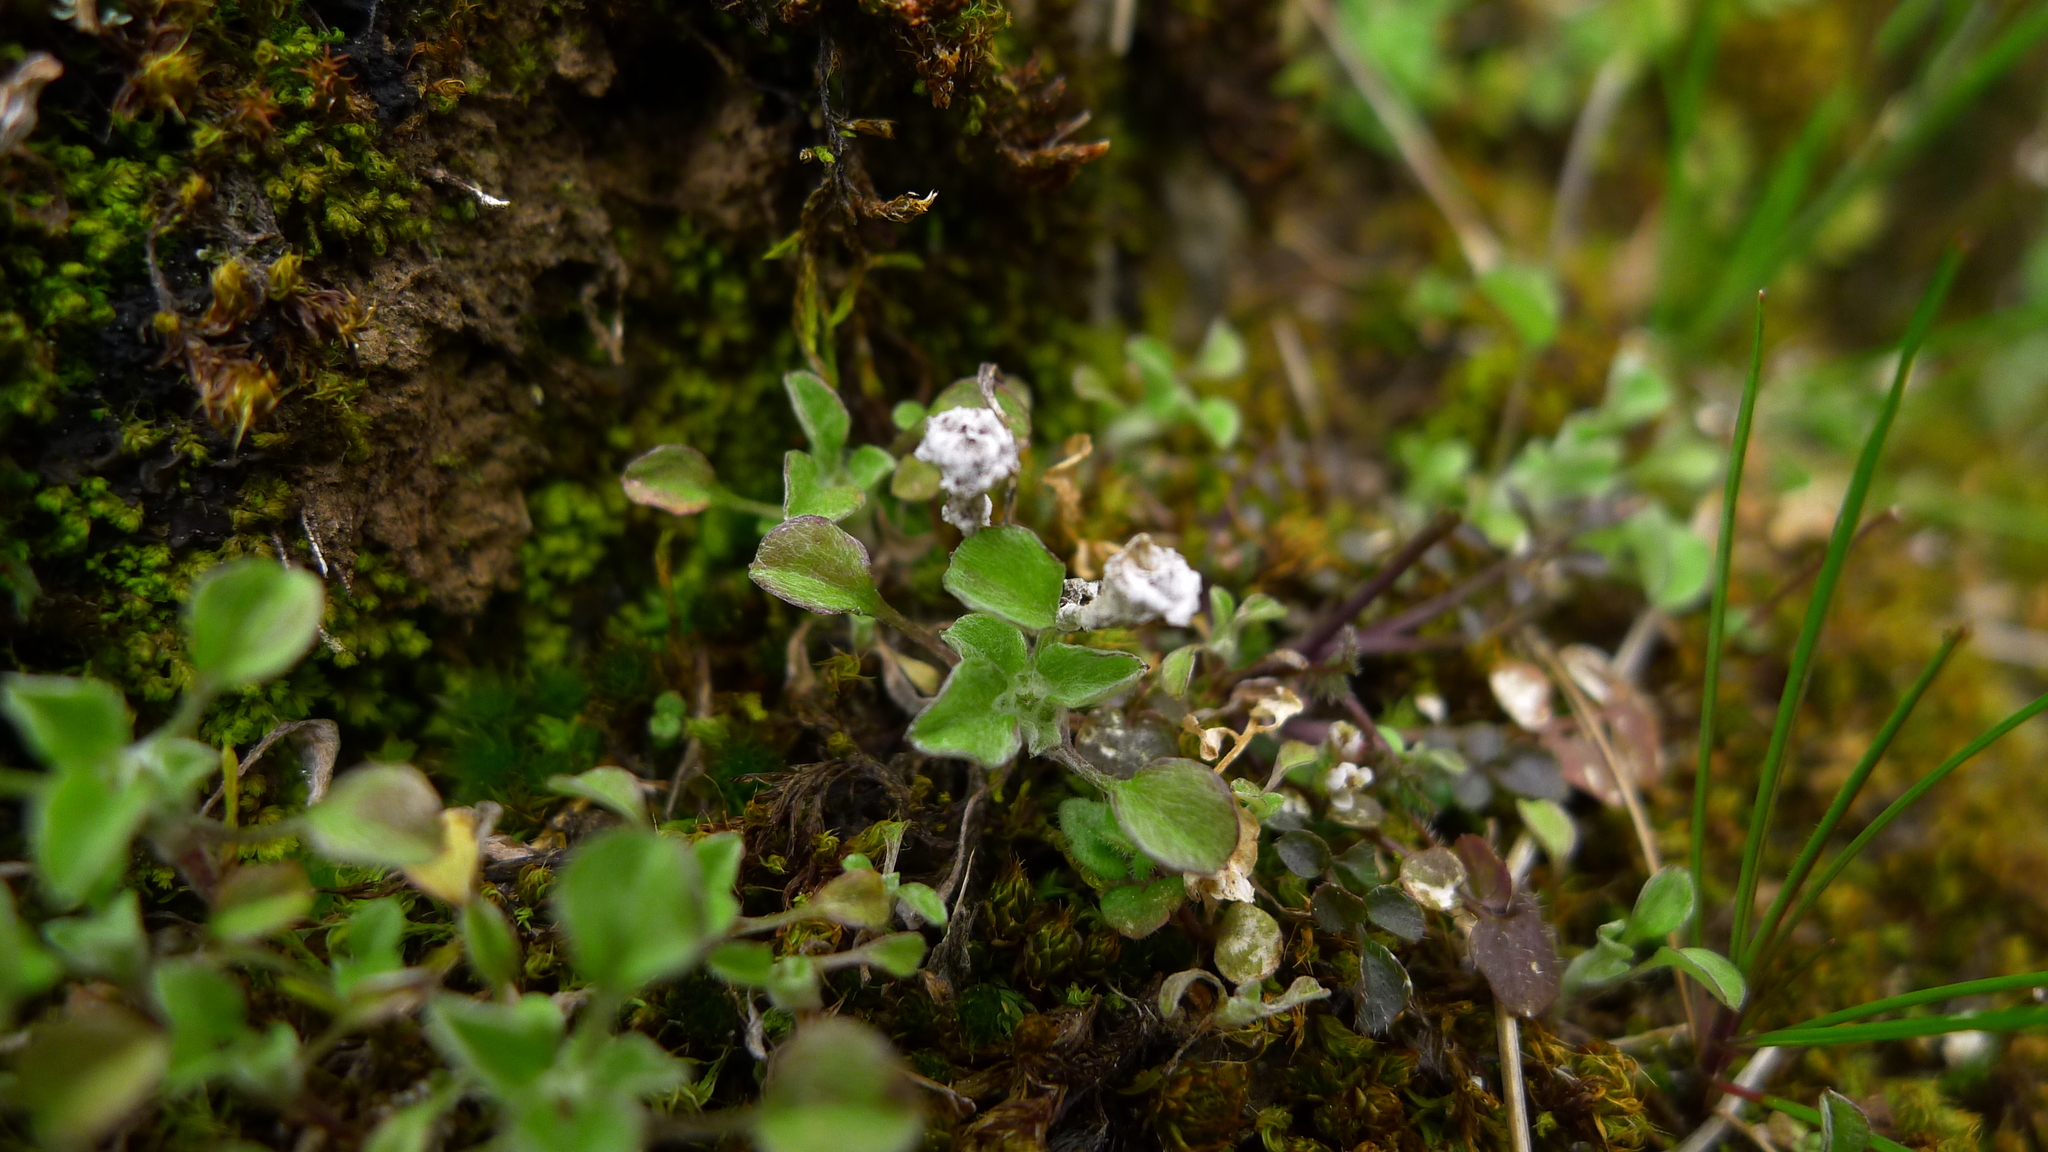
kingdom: Plantae
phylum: Tracheophyta
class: Magnoliopsida
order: Asterales
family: Asteraceae
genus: Stuartina
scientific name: Stuartina muelleri
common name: Spoon-leaved cudweed
